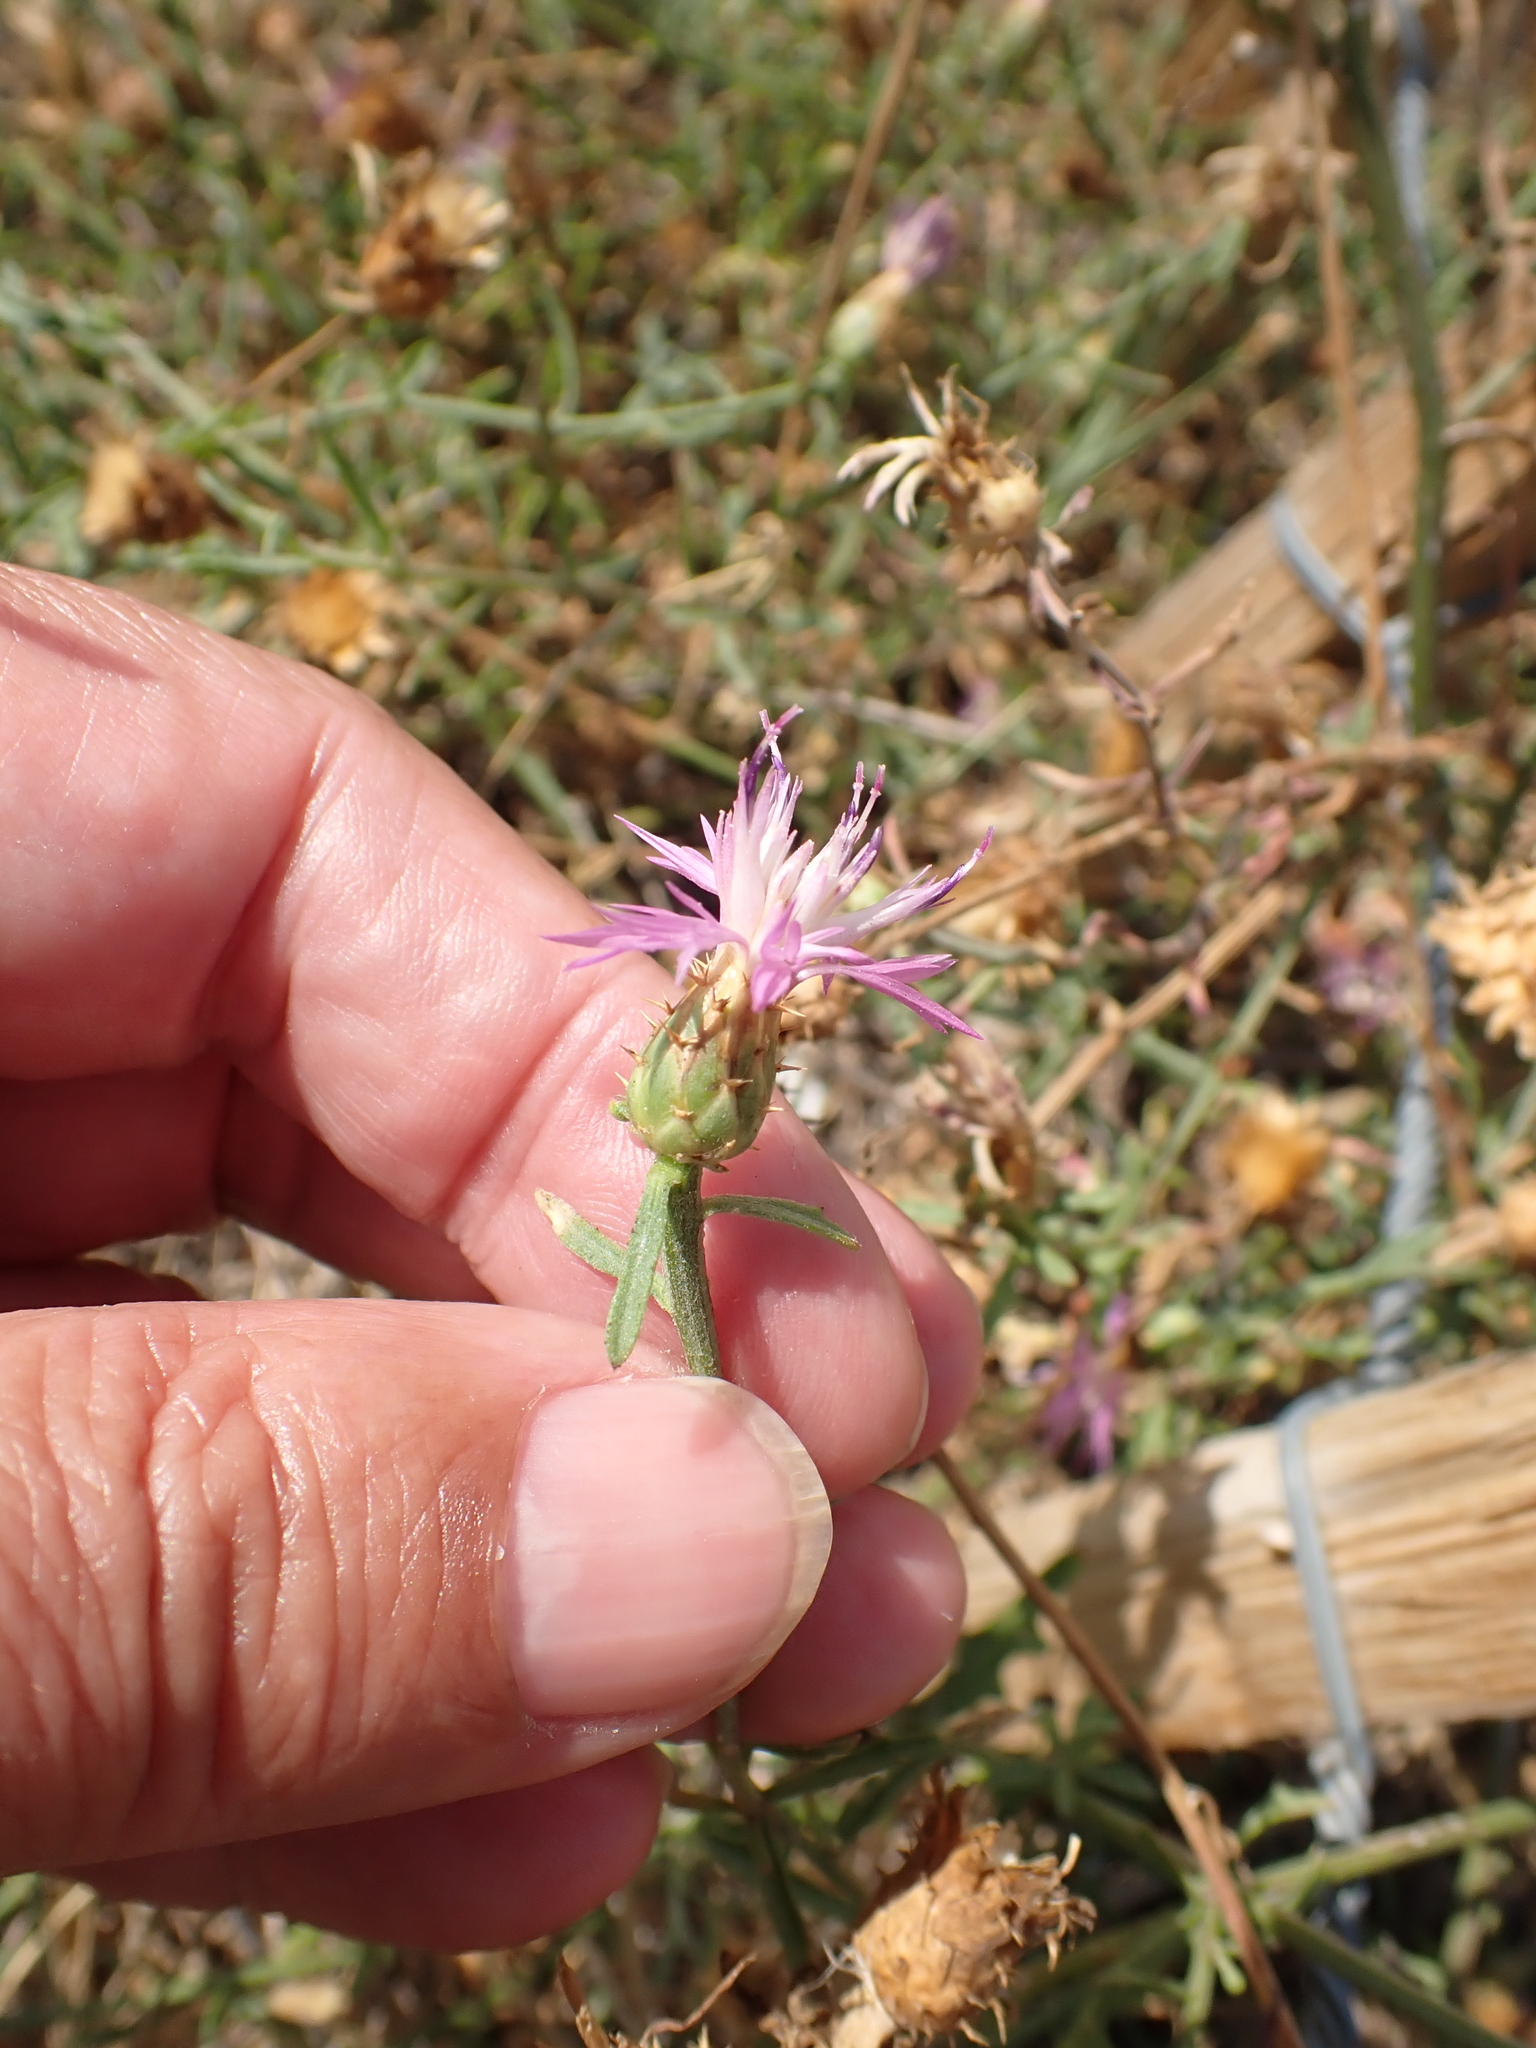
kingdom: Plantae
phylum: Tracheophyta
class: Magnoliopsida
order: Asterales
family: Asteraceae
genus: Centaurea
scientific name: Centaurea aspera
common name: Rough star-thistle
